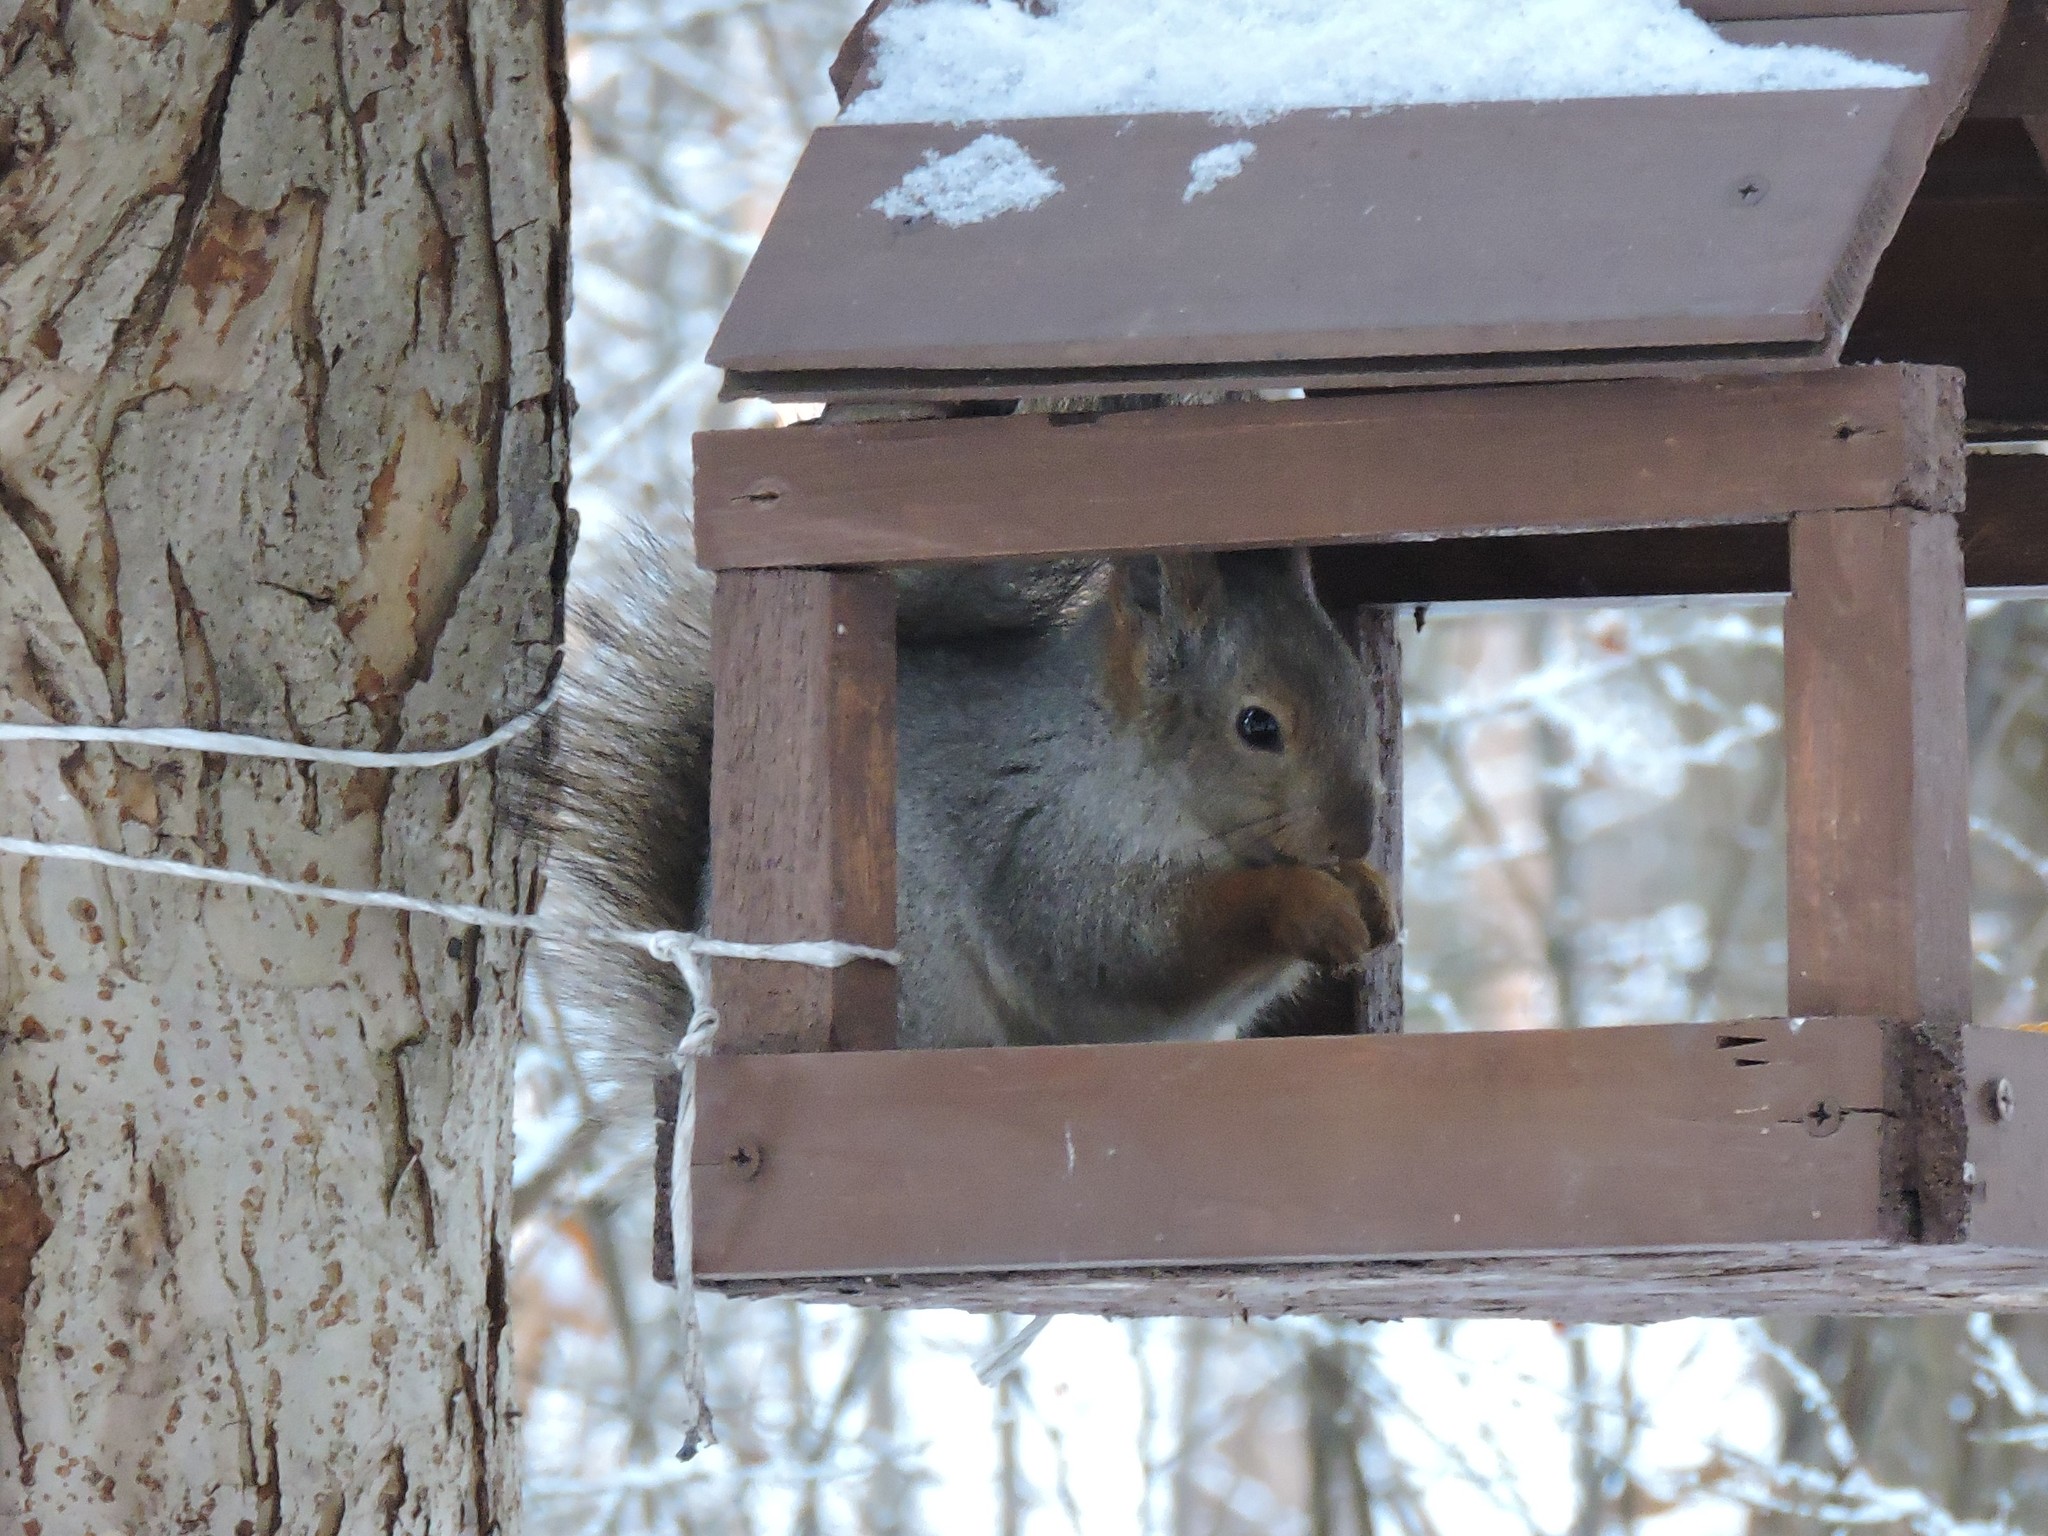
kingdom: Animalia
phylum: Chordata
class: Mammalia
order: Rodentia
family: Sciuridae
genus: Sciurus
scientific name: Sciurus vulgaris
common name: Eurasian red squirrel
